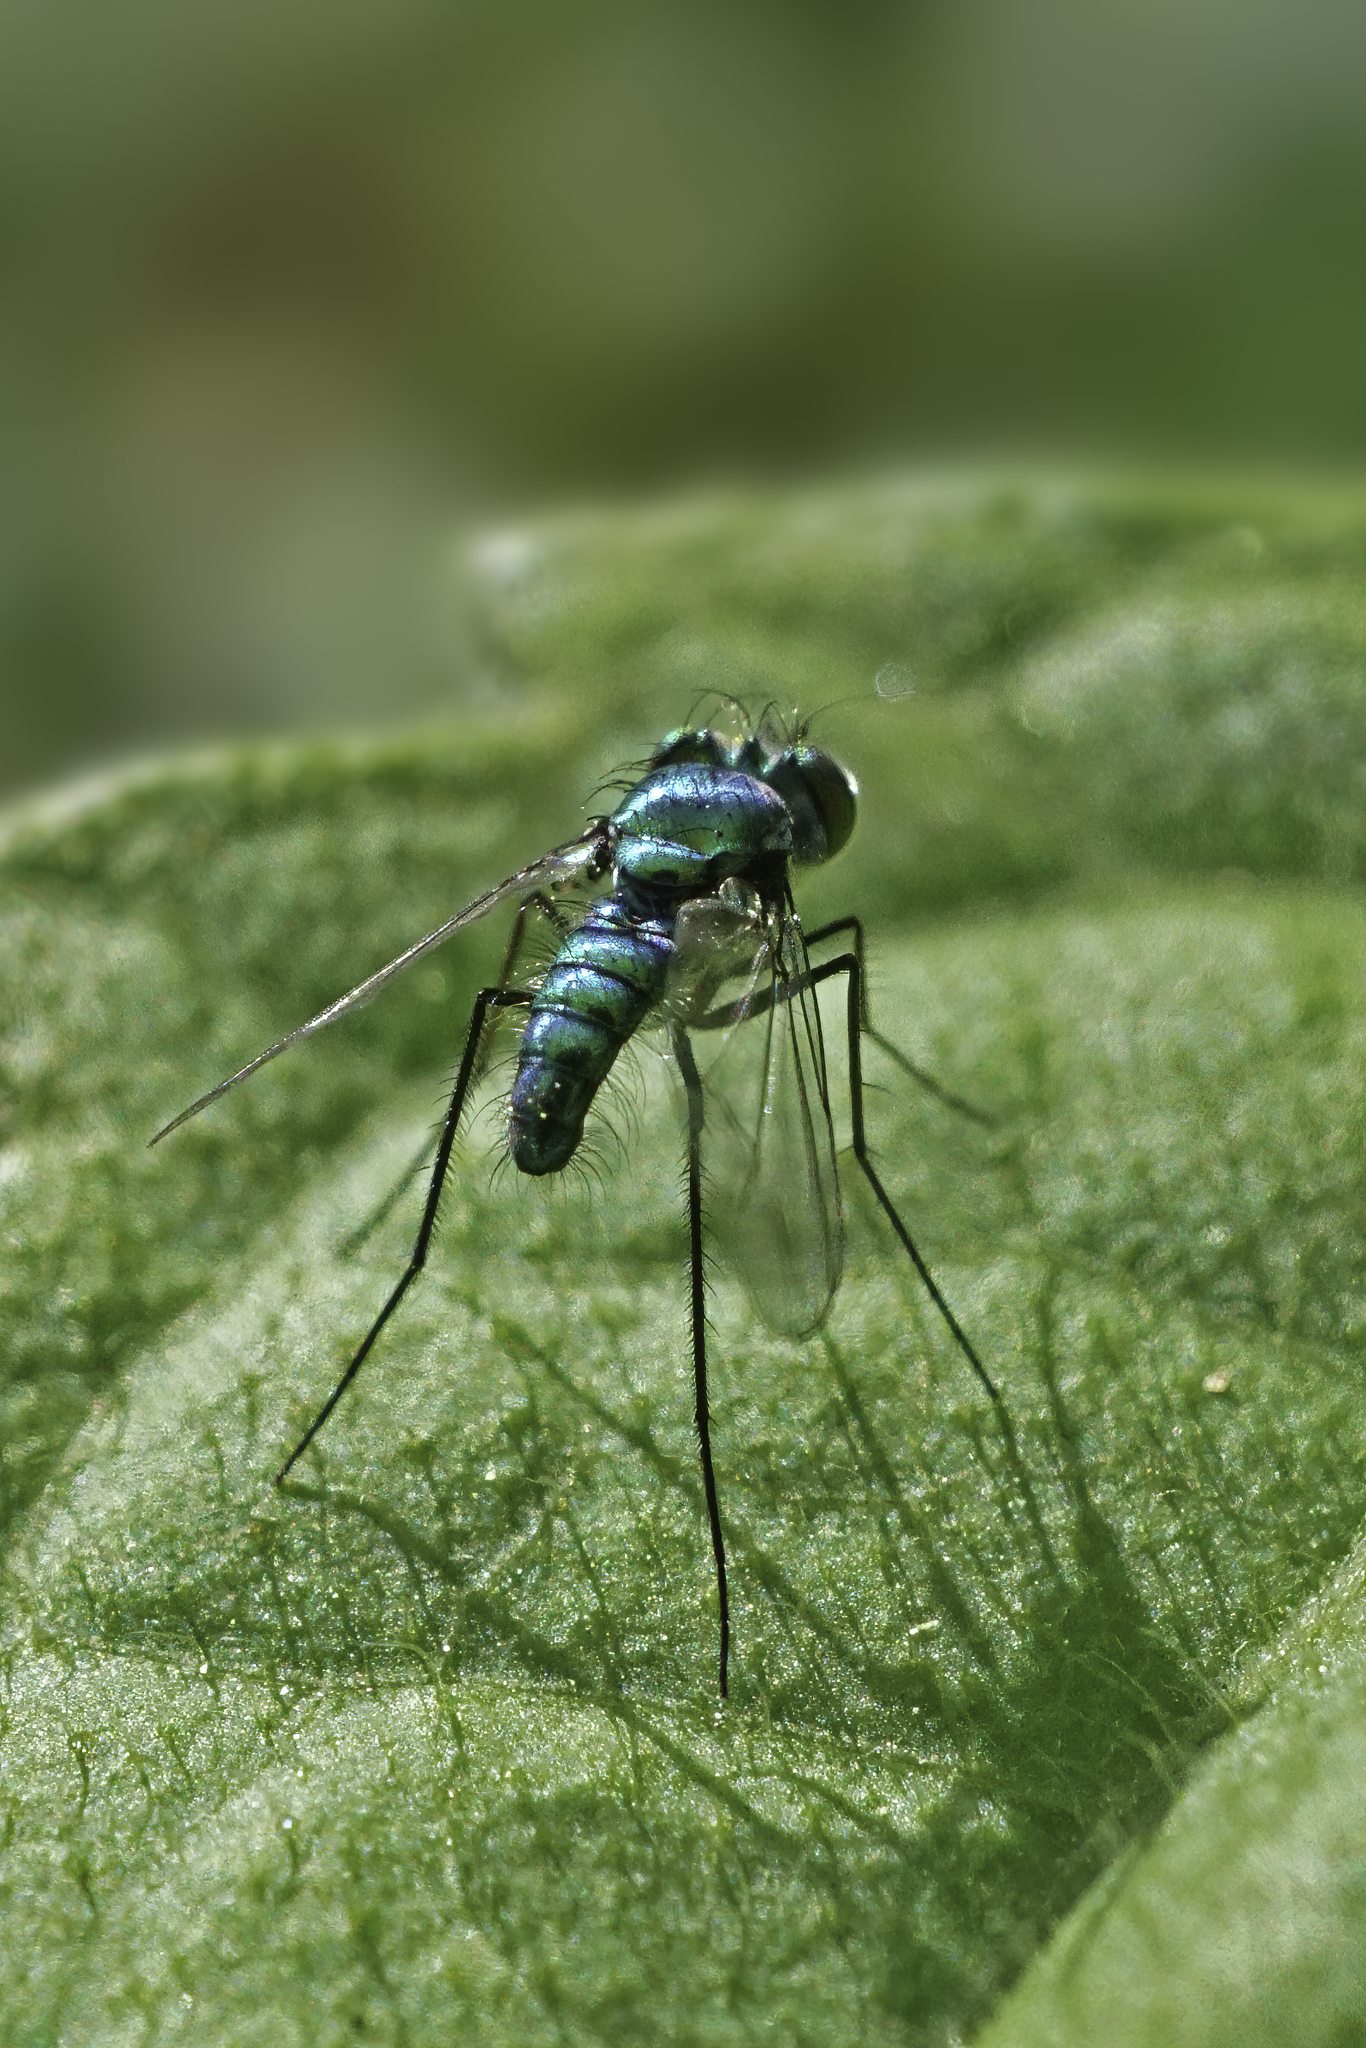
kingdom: Animalia
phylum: Arthropoda
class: Insecta
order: Diptera
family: Dolichopodidae
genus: Condylostylus
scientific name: Condylostylus purpureus
